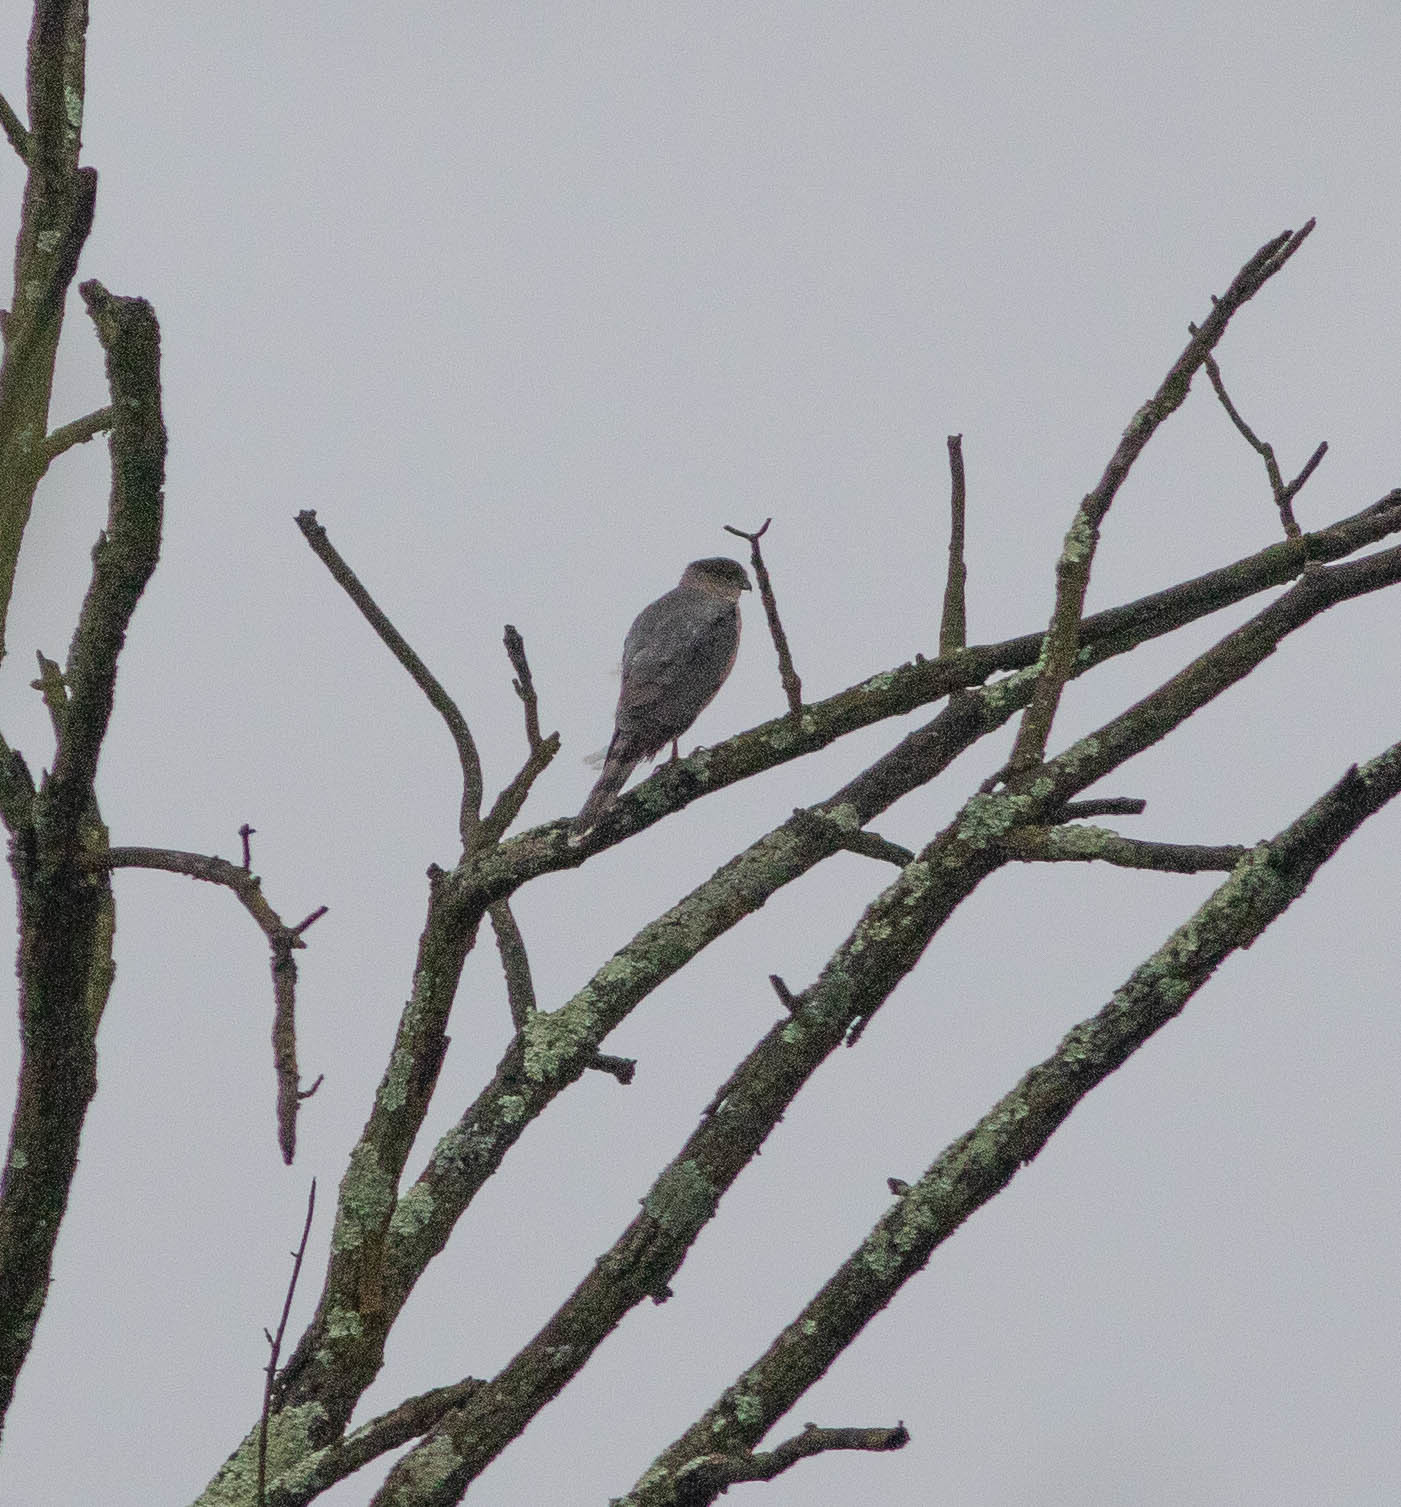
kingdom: Animalia
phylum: Chordata
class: Aves
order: Accipitriformes
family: Accipitridae
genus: Accipiter
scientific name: Accipiter cooperii
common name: Cooper's hawk
